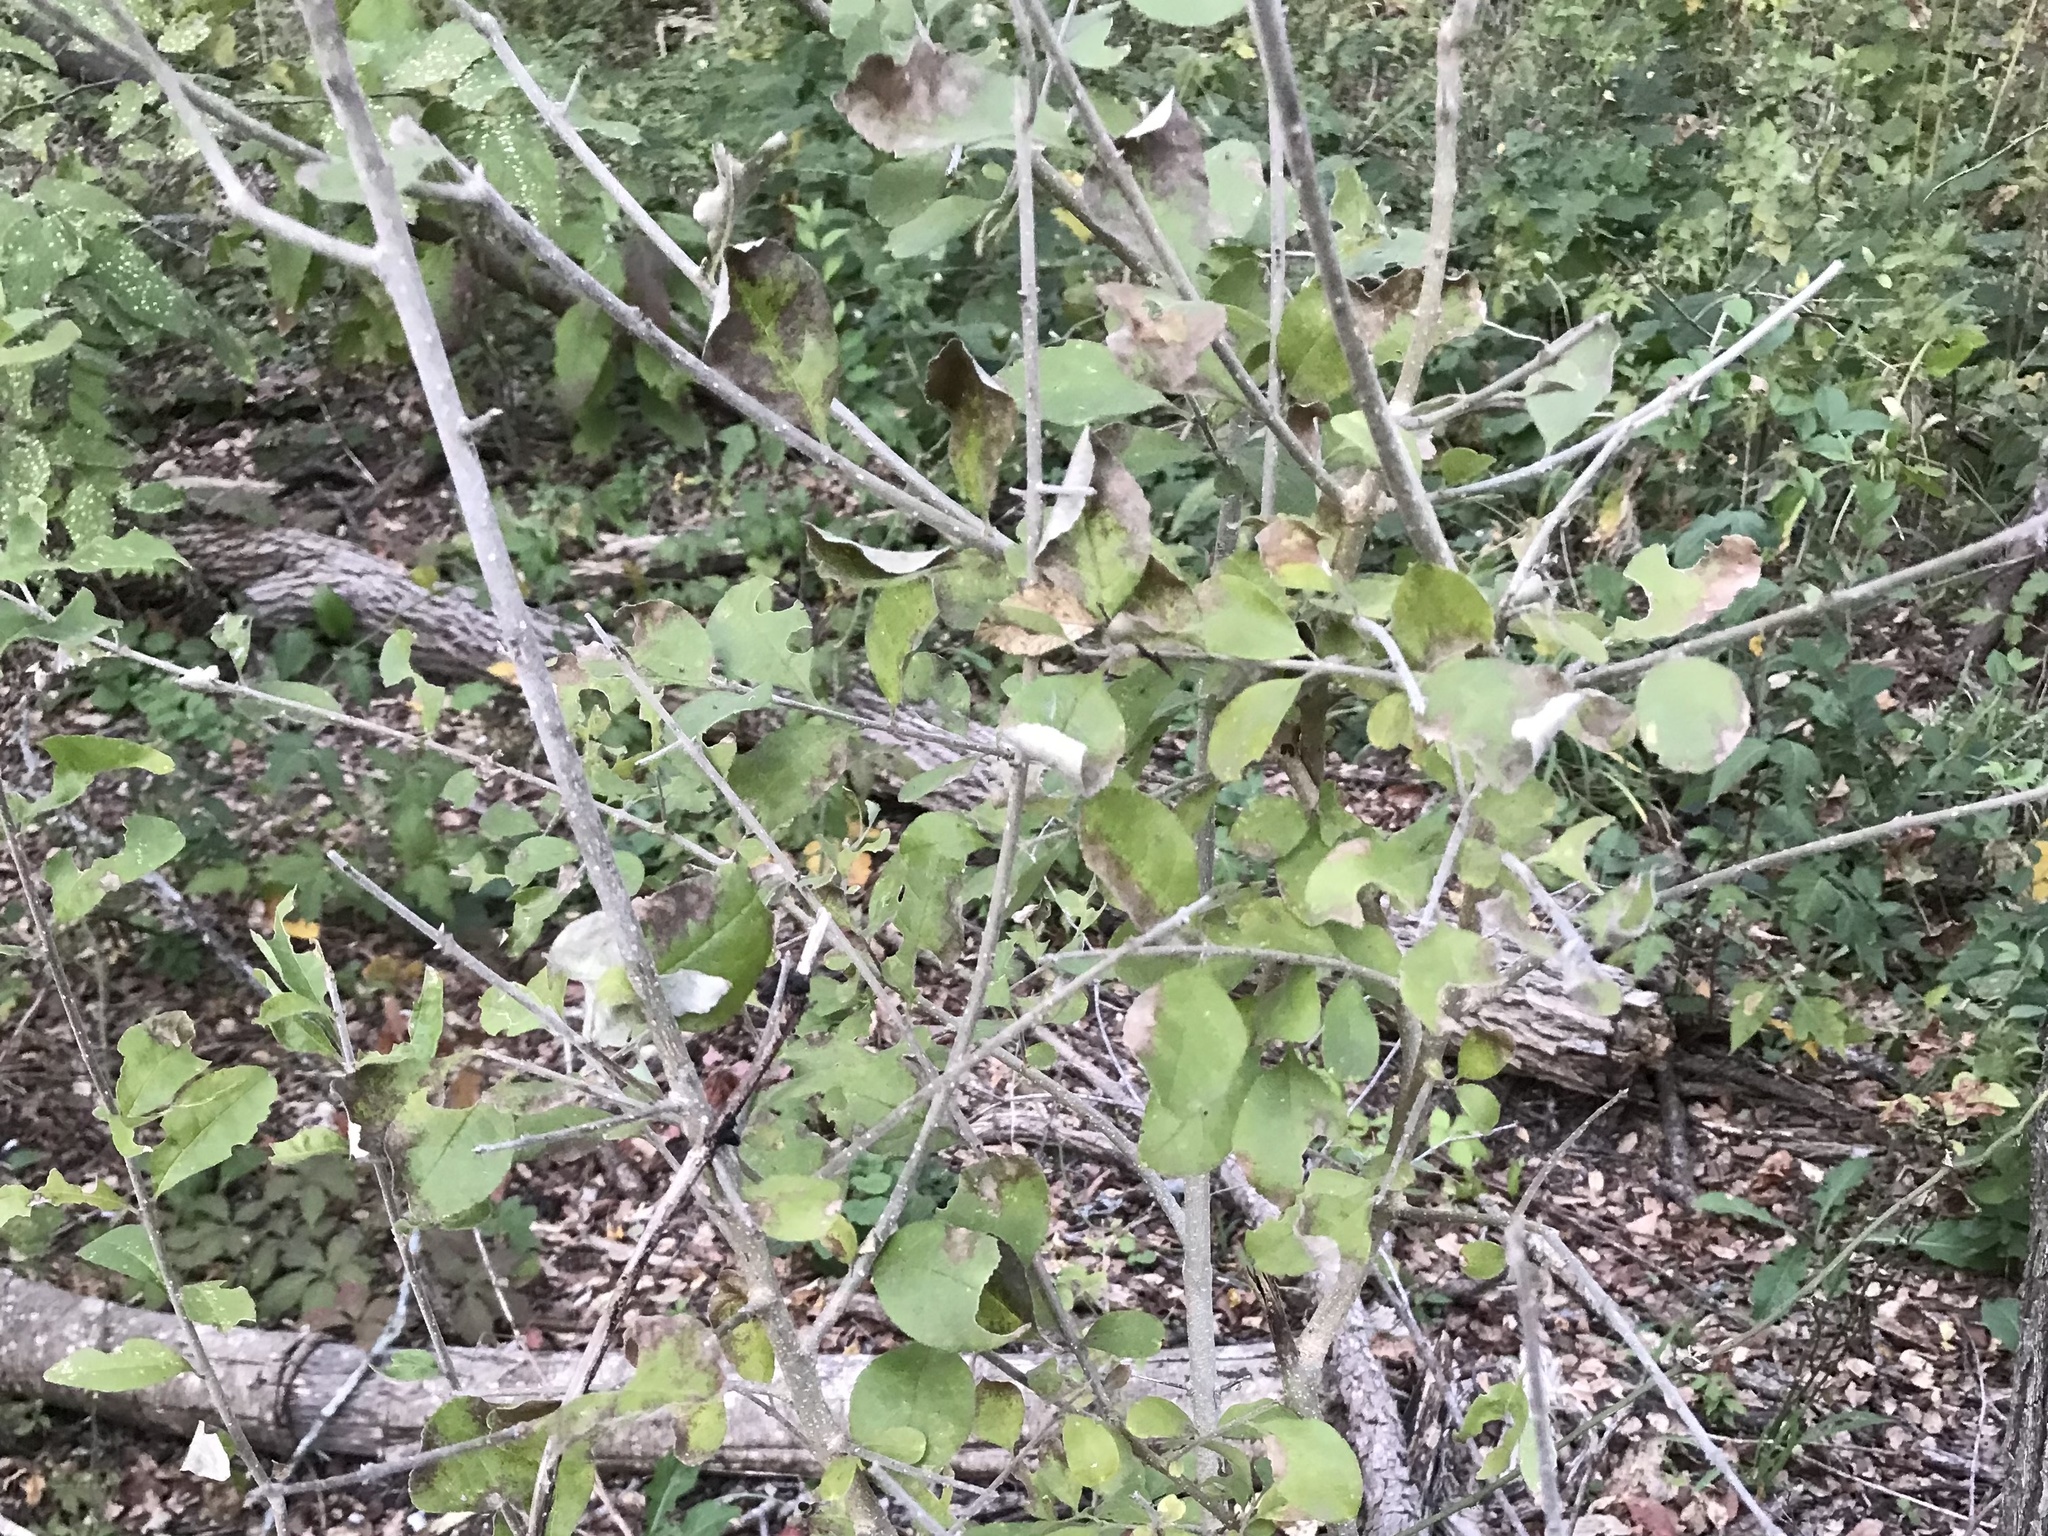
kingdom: Plantae
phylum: Tracheophyta
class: Magnoliopsida
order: Lamiales
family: Oleaceae
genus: Forestiera
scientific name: Forestiera pubescens
